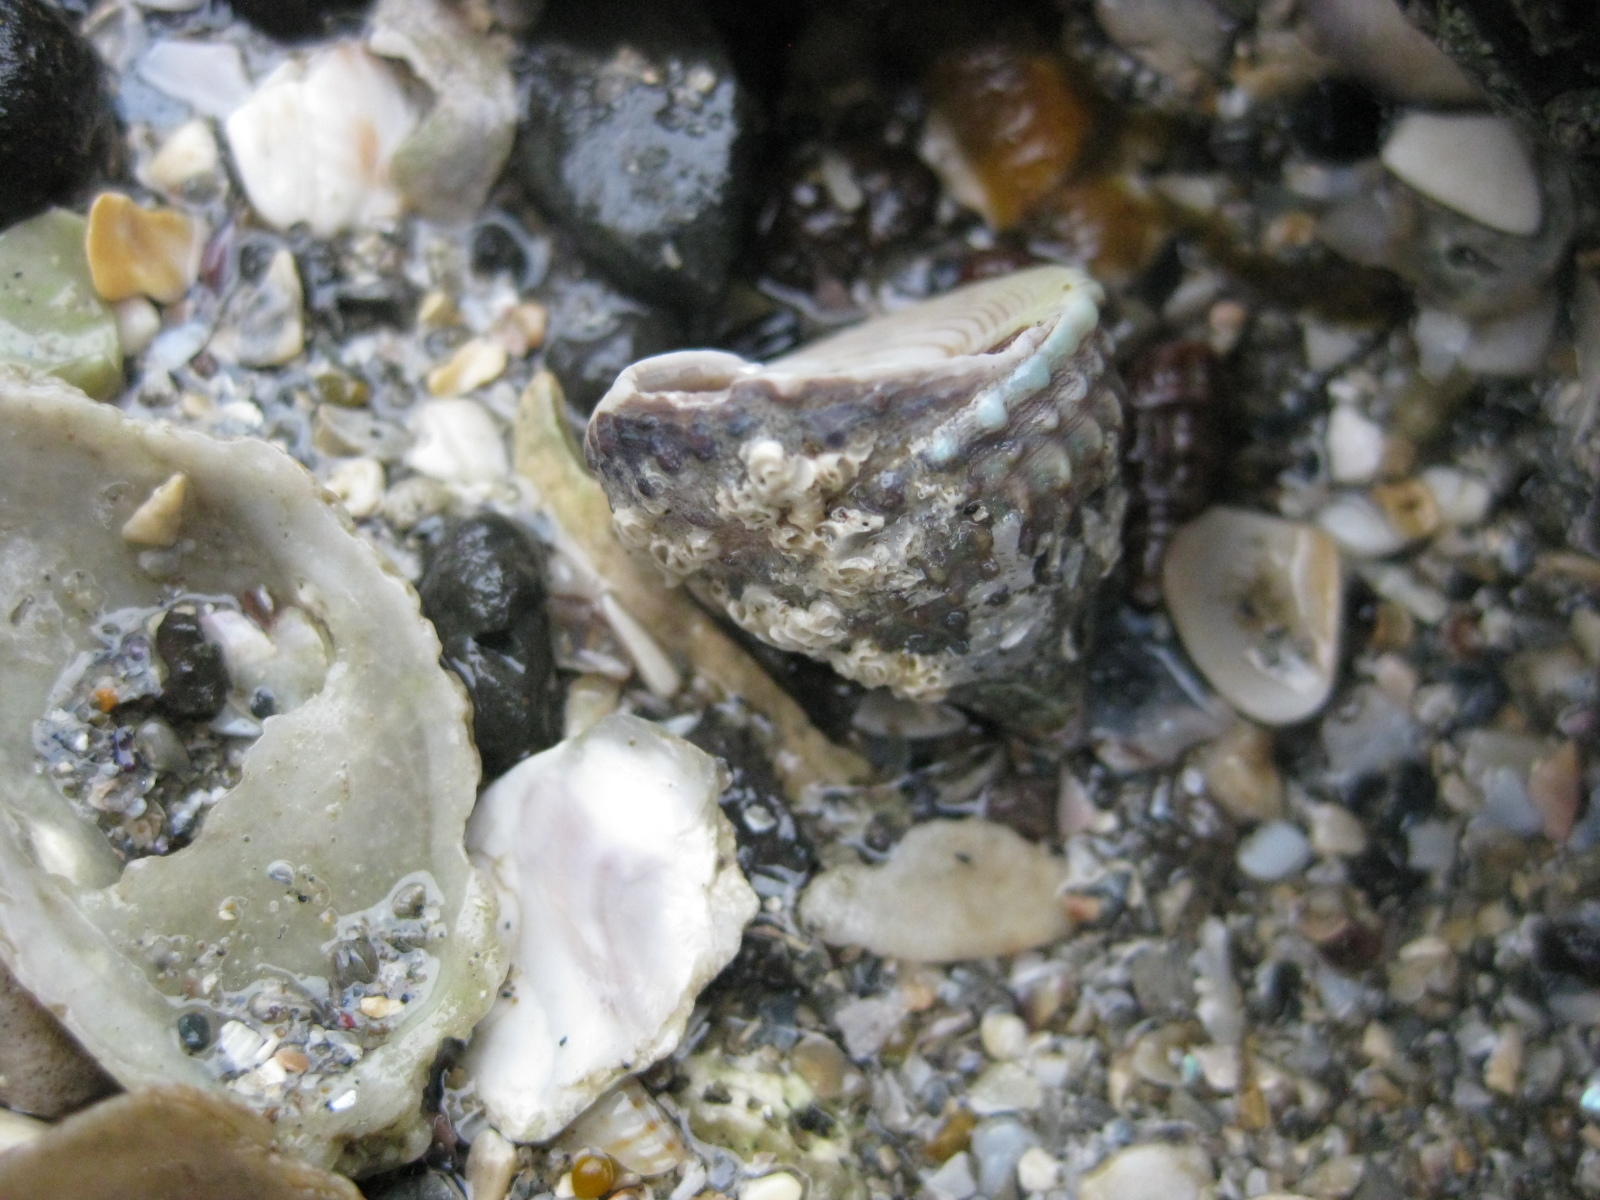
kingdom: Animalia
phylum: Mollusca
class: Gastropoda
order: Trochida
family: Trochidae
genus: Coelotrochus
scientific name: Coelotrochus viridis
